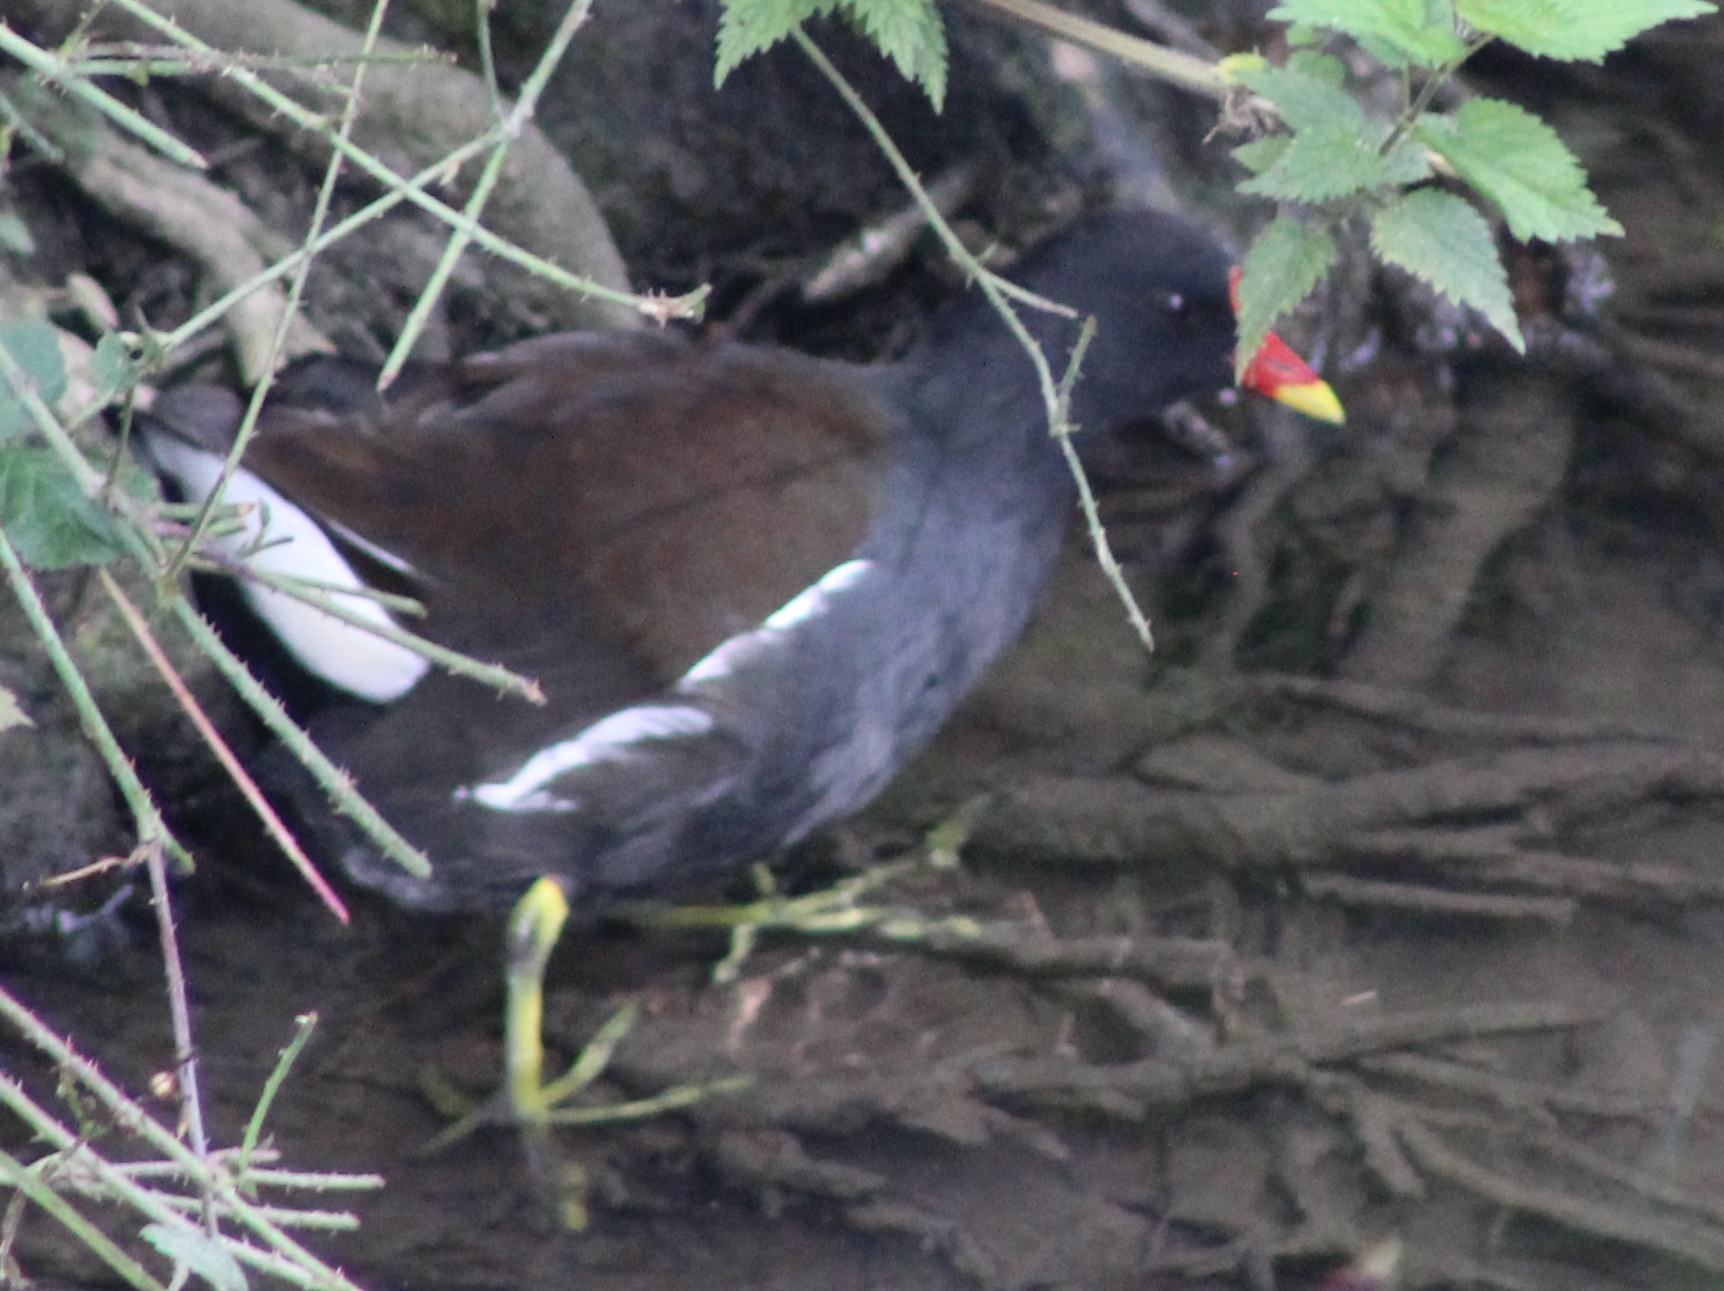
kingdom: Animalia
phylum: Chordata
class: Aves
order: Gruiformes
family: Rallidae
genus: Gallinula
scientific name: Gallinula chloropus
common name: Common moorhen
